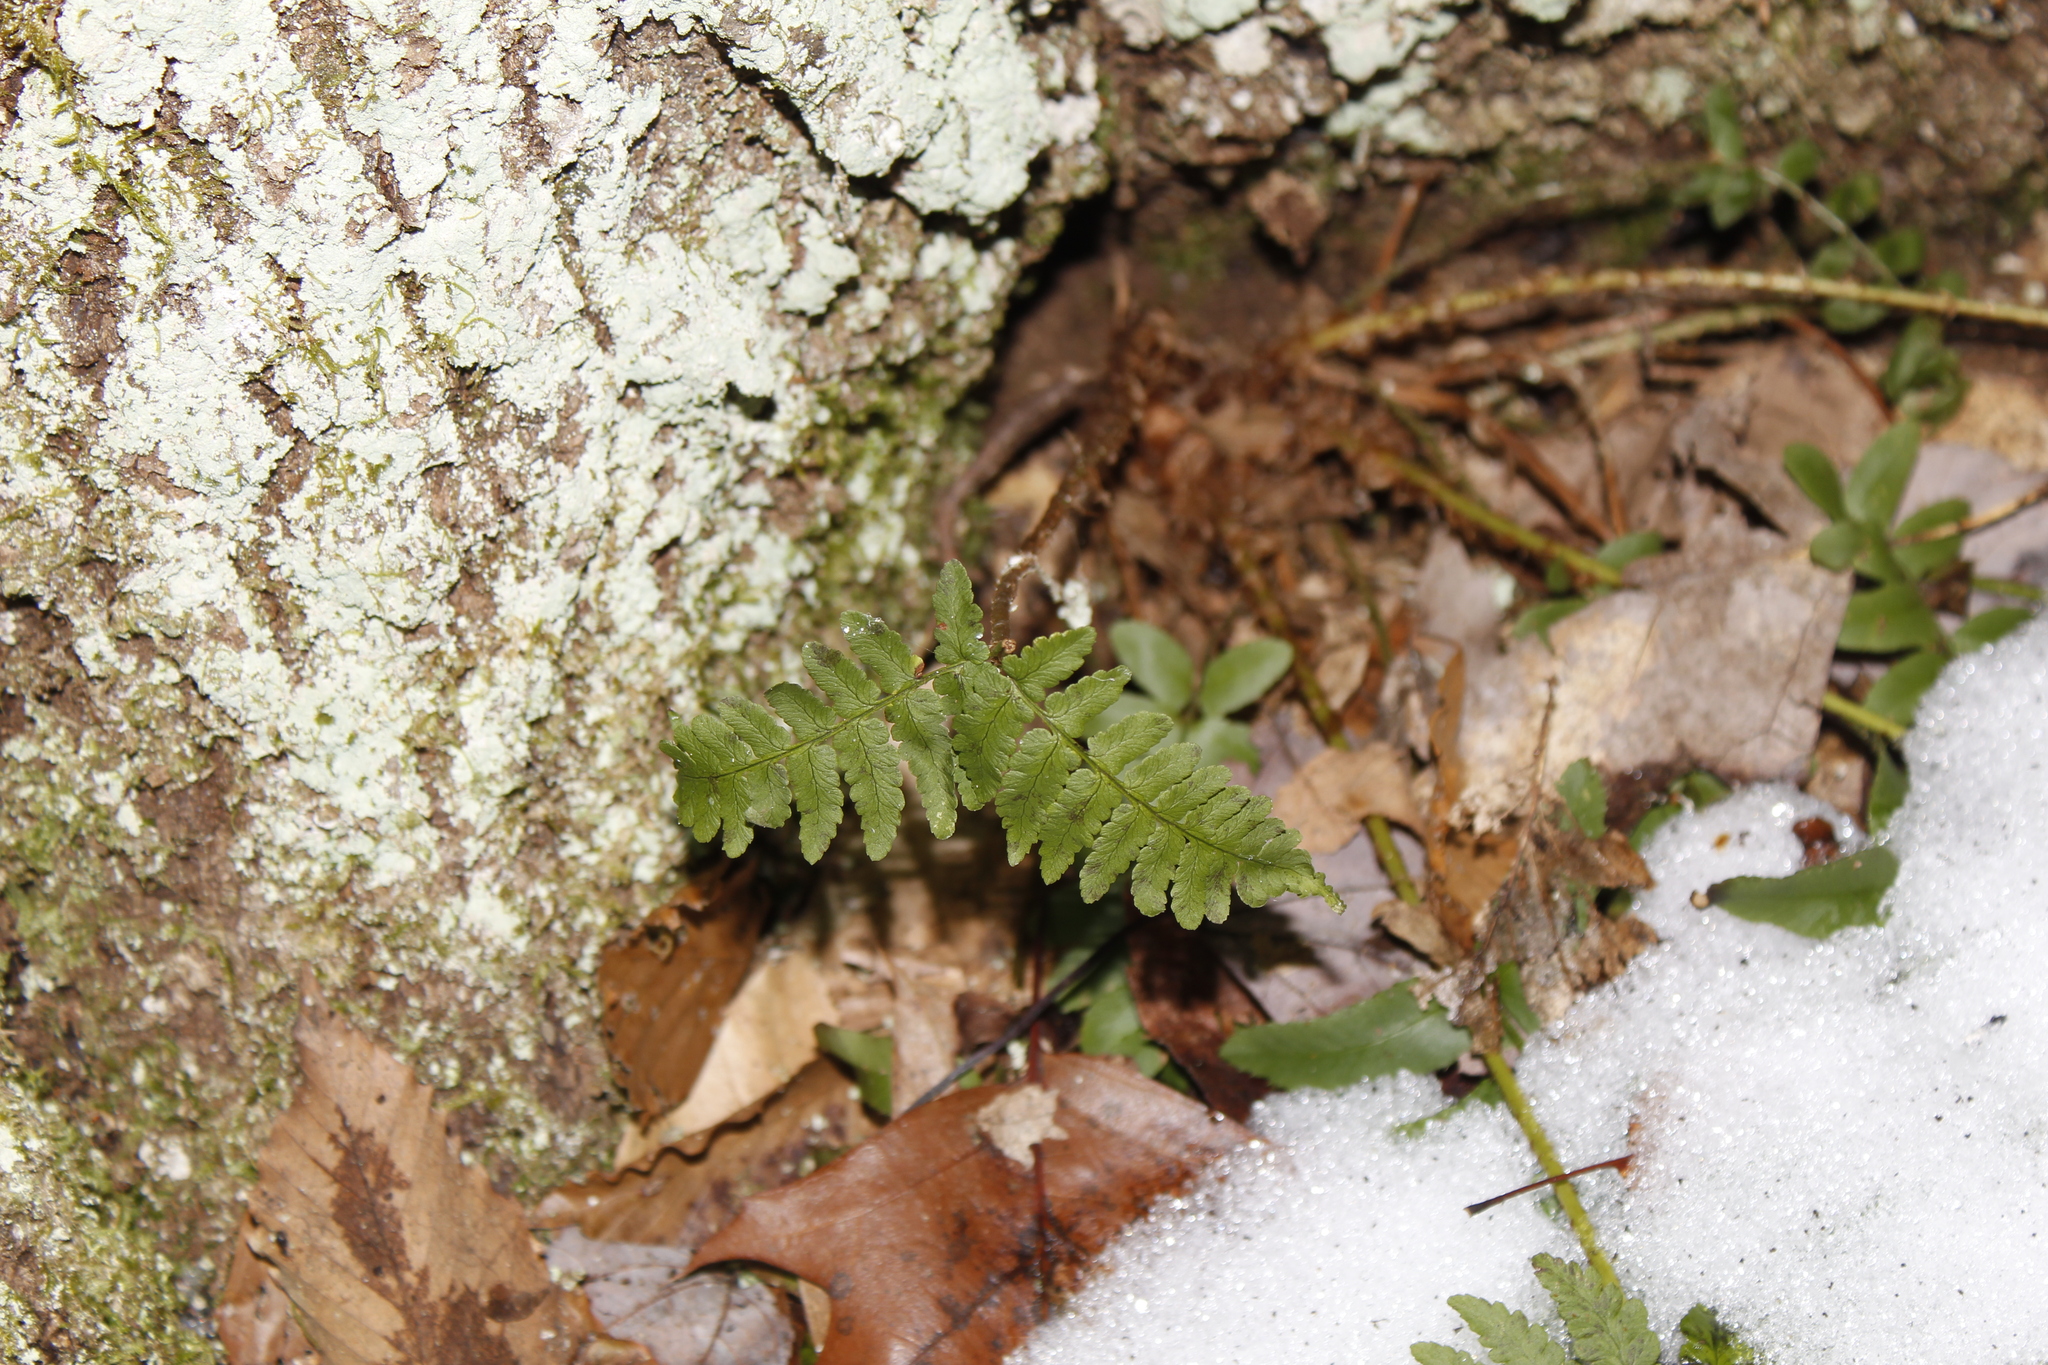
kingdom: Plantae
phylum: Tracheophyta
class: Polypodiopsida
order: Polypodiales
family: Dryopteridaceae
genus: Dryopteris
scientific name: Dryopteris marginalis
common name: Marginal wood fern
